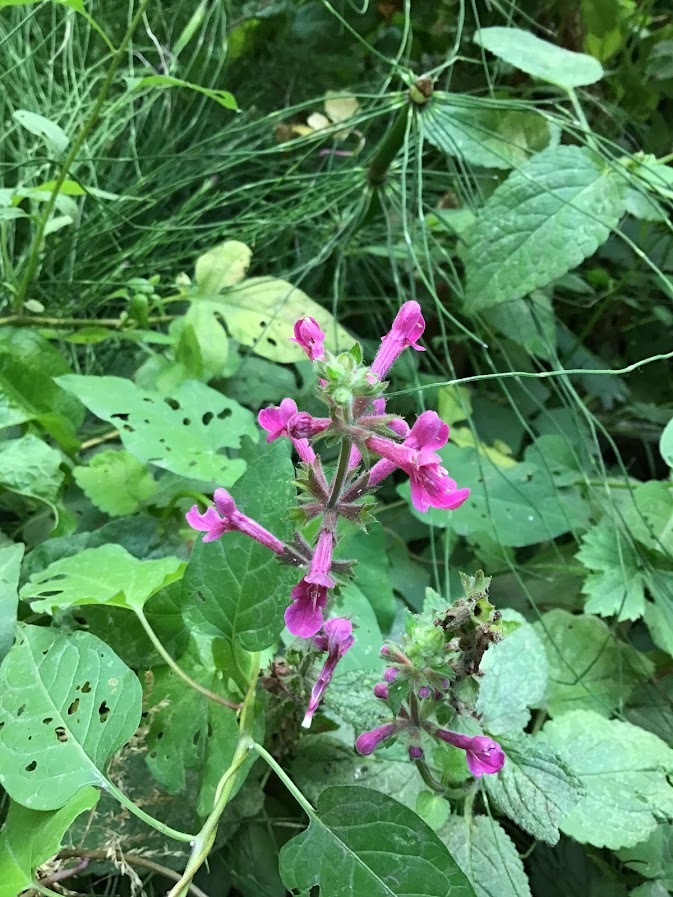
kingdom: Plantae
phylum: Tracheophyta
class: Magnoliopsida
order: Lamiales
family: Lamiaceae
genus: Stachys
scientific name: Stachys chamissonis
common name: Coastal hedge-nettle
